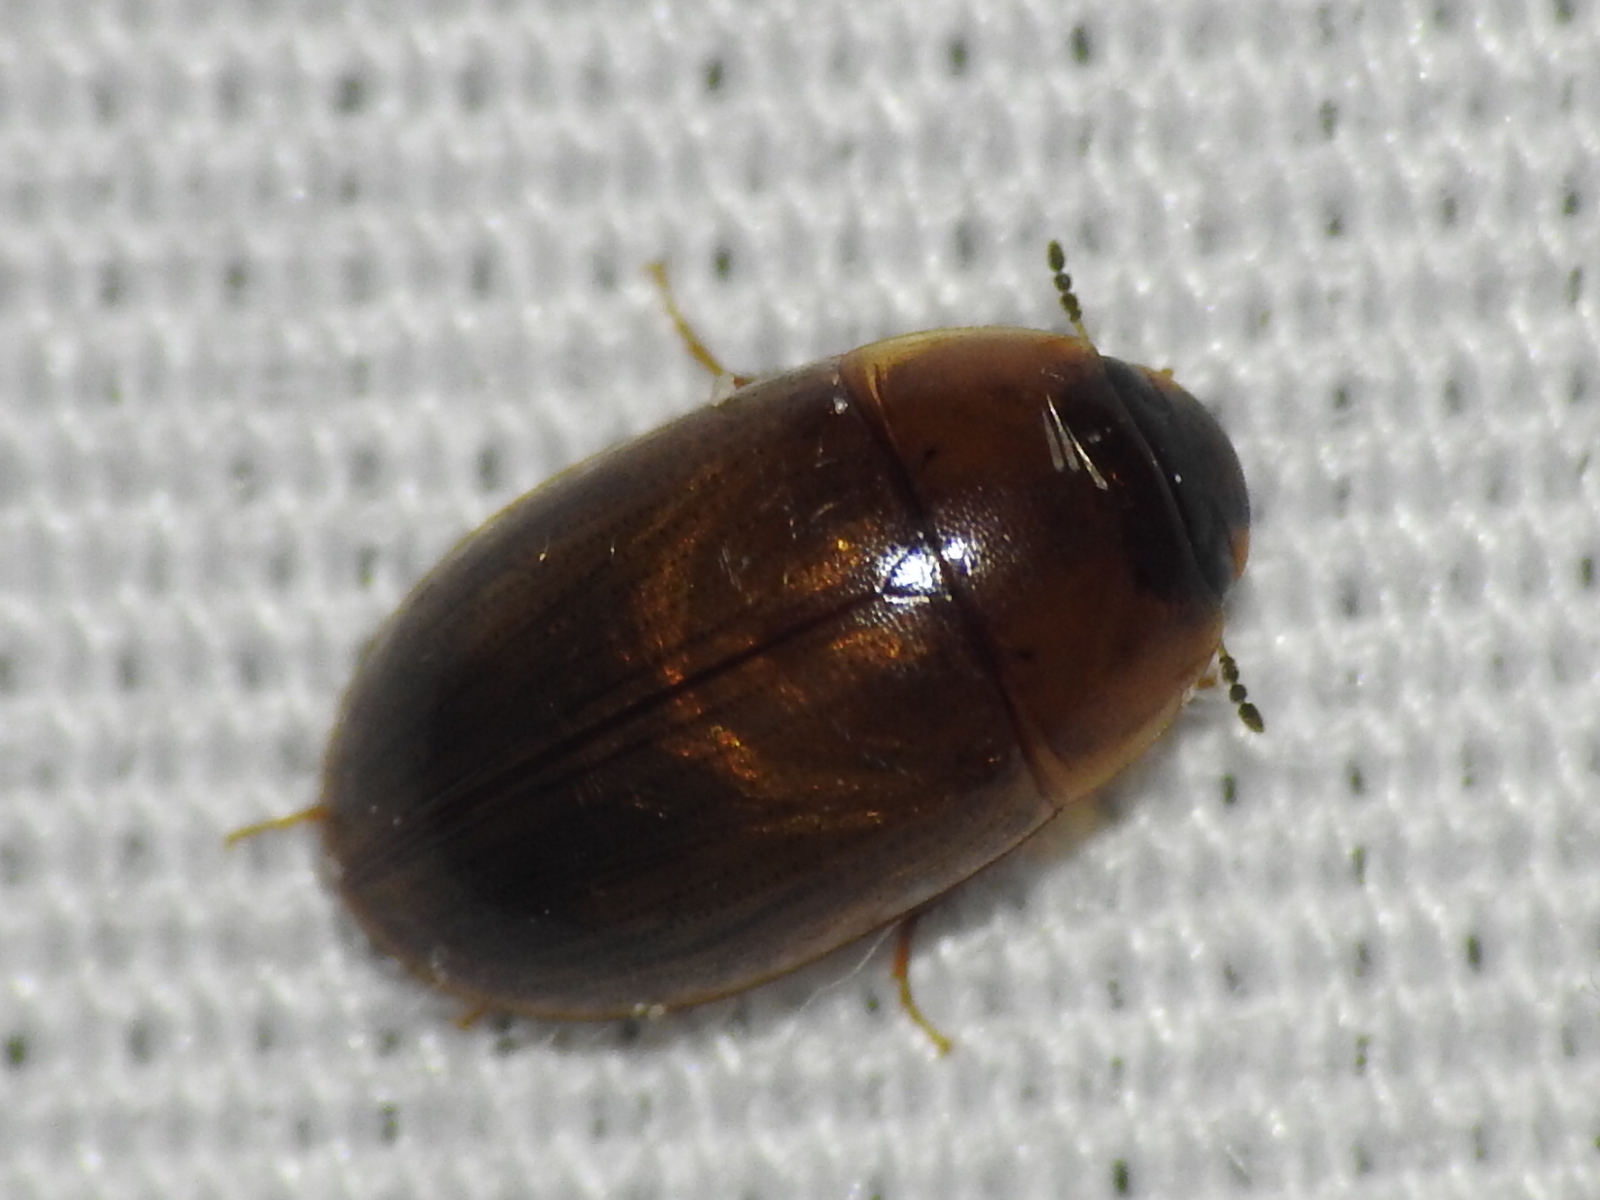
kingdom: Animalia
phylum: Arthropoda
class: Insecta
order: Coleoptera
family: Hydrophilidae
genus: Enochrus
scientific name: Enochrus
